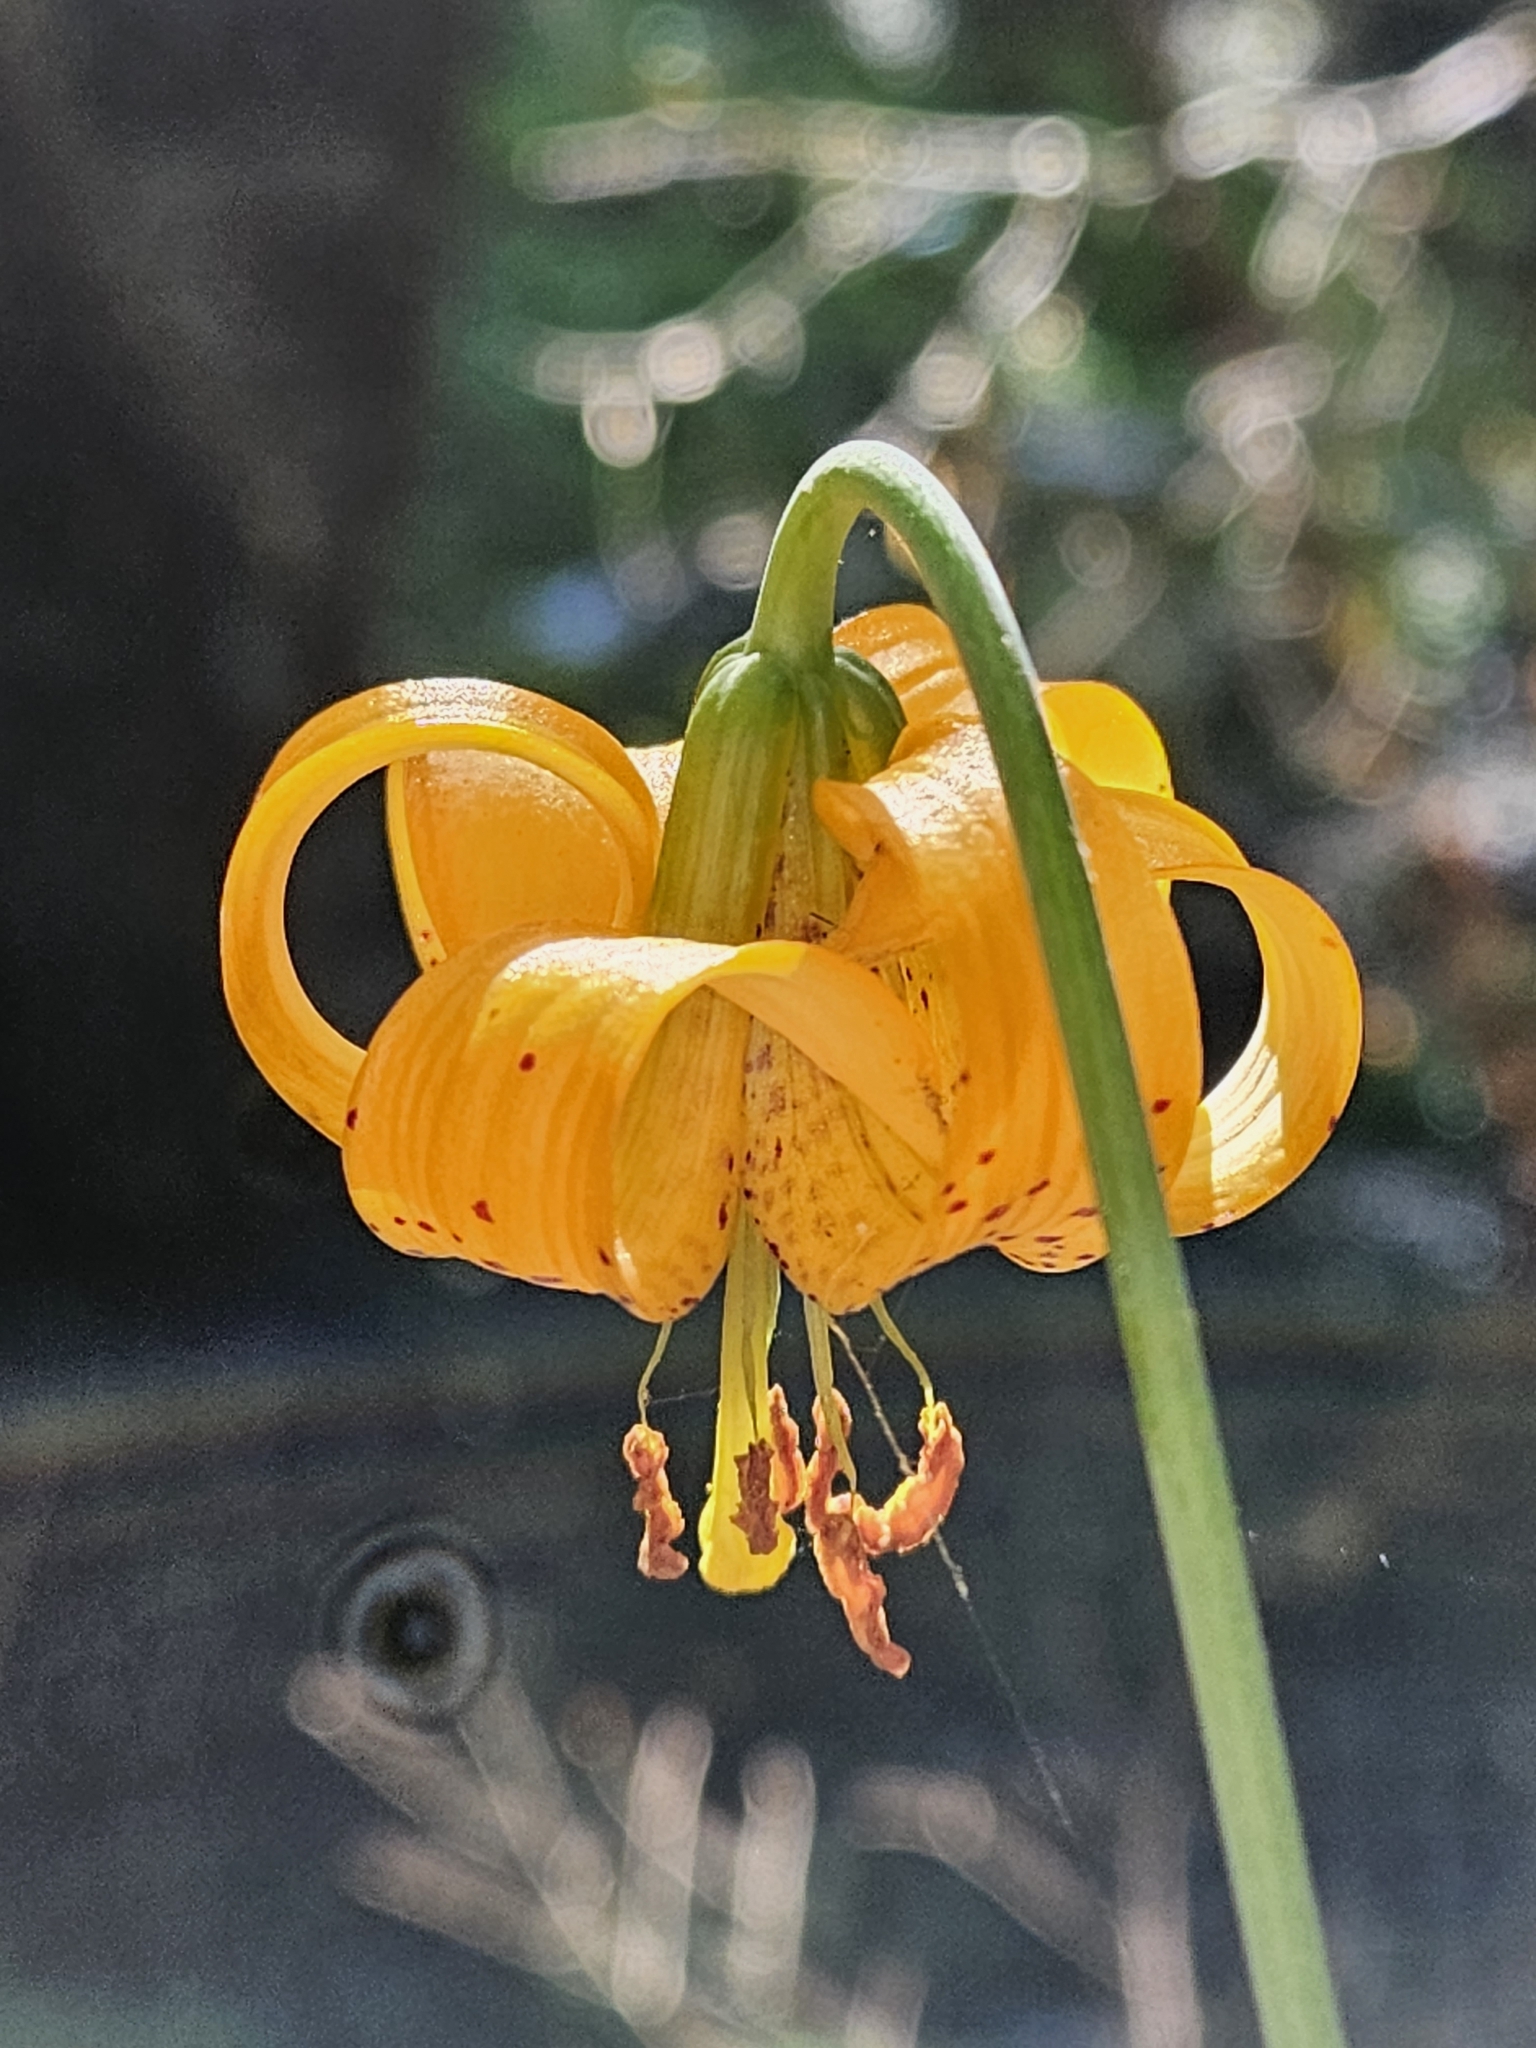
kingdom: Plantae
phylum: Tracheophyta
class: Liliopsida
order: Liliales
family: Liliaceae
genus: Lilium
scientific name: Lilium columbianum
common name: Columbia lily
